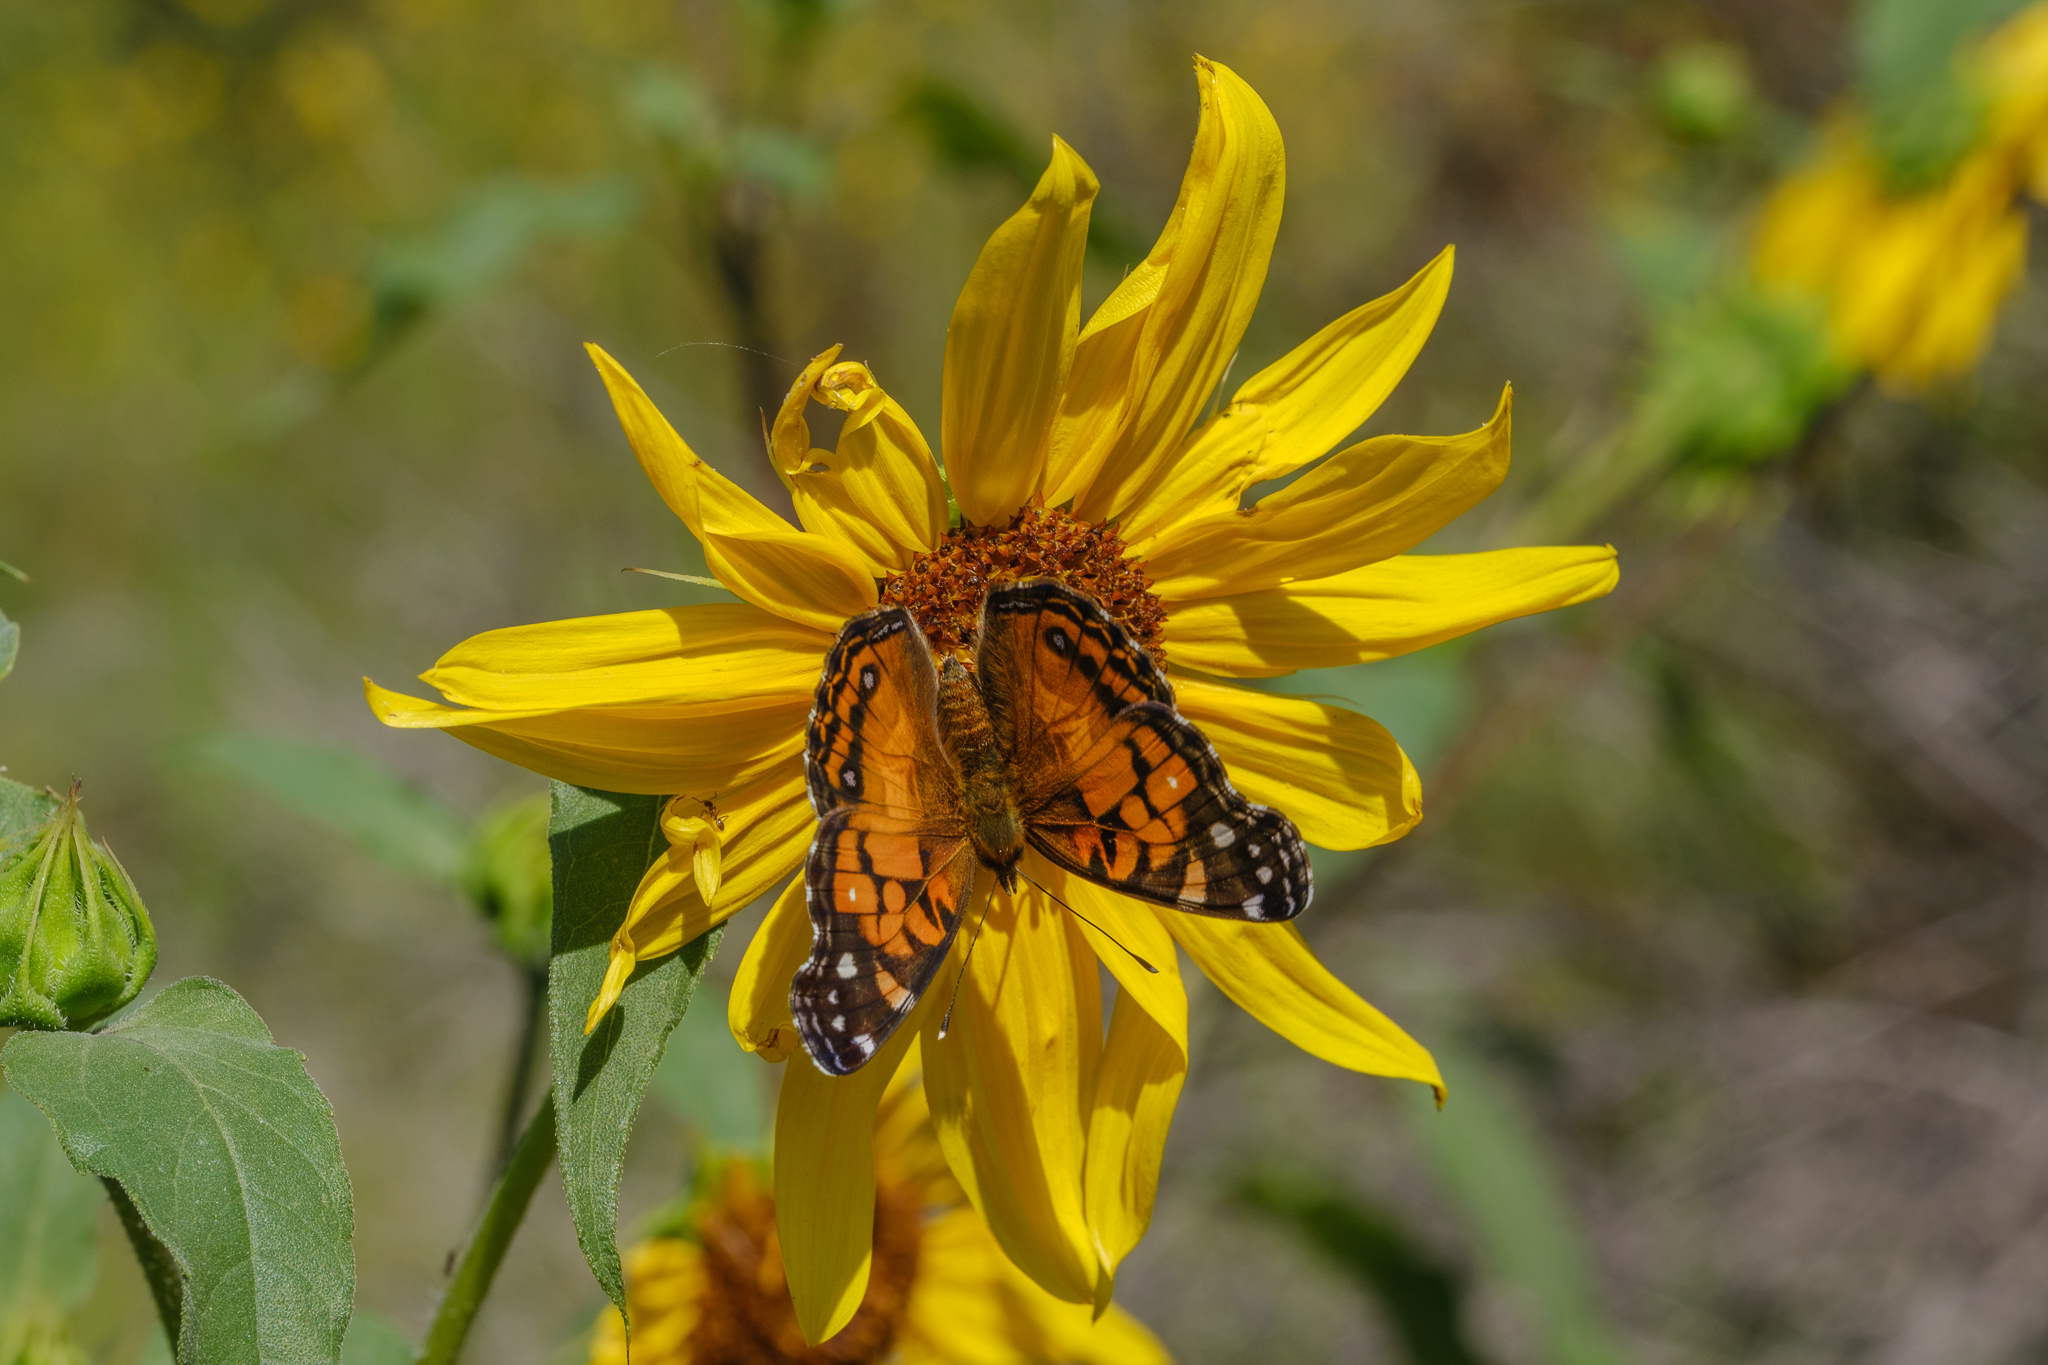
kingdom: Animalia
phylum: Arthropoda
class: Insecta
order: Lepidoptera
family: Nymphalidae
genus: Vanessa
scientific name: Vanessa virginiensis
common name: American lady
